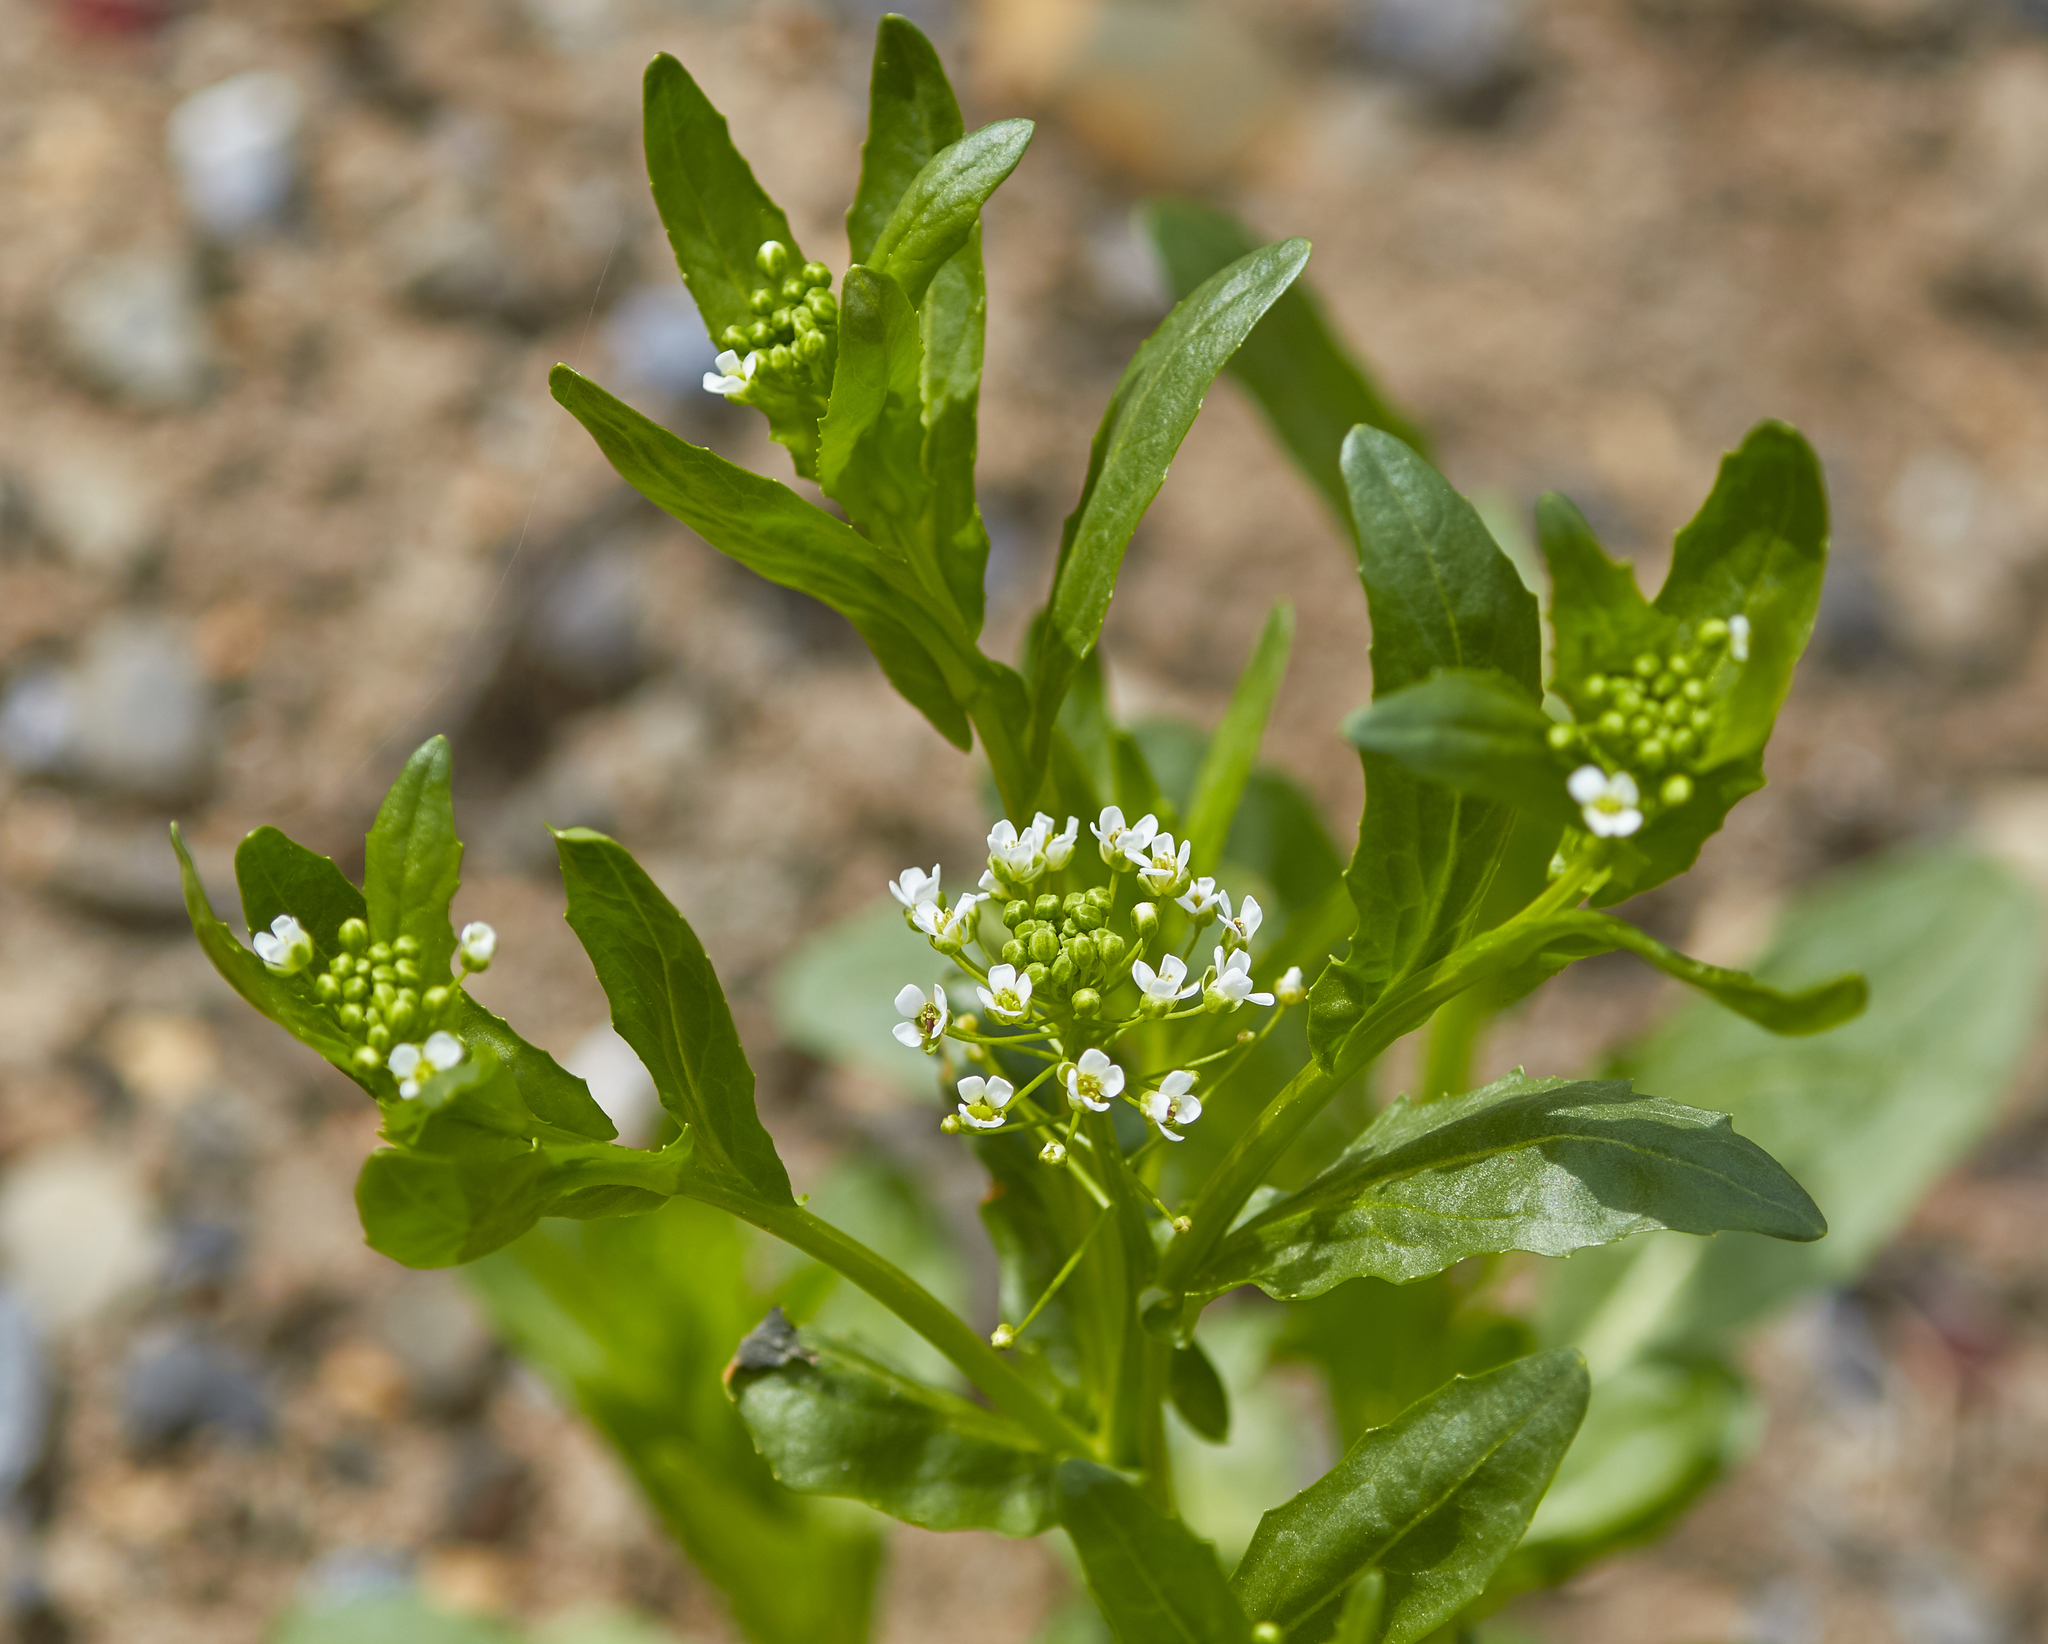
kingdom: Plantae
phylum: Tracheophyta
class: Magnoliopsida
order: Brassicales
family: Brassicaceae
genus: Thlaspi
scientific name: Thlaspi arvense
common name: Field pennycress
